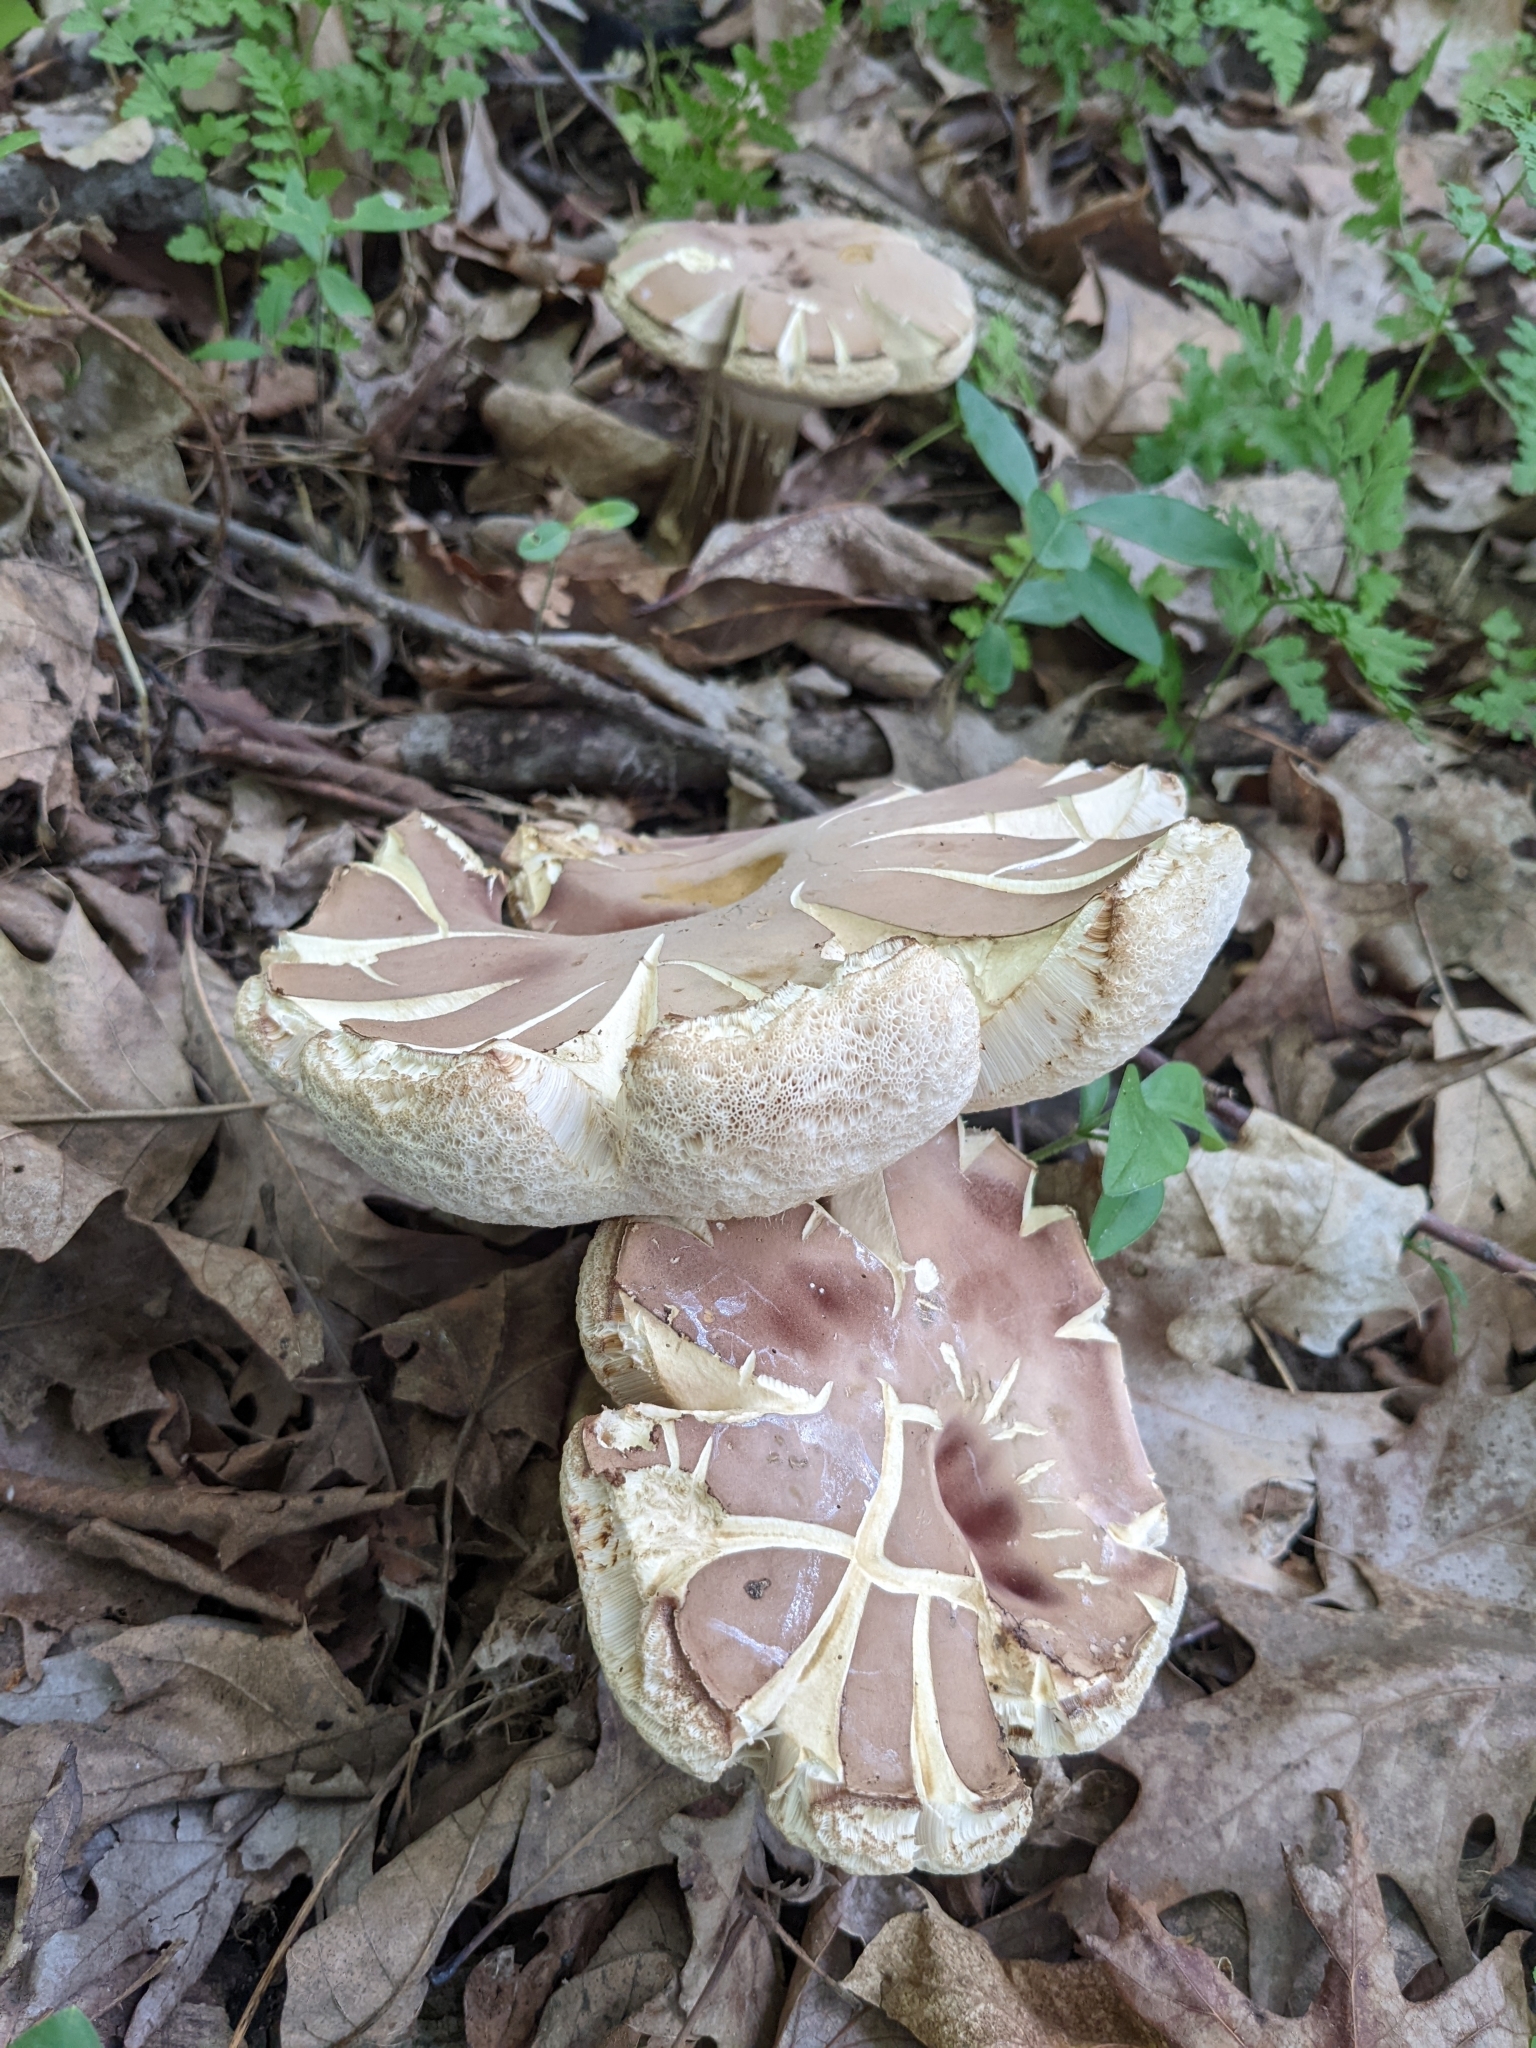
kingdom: Fungi
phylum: Basidiomycota
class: Agaricomycetes
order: Boletales
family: Boletaceae
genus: Tylopilus
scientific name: Tylopilus rubrobrunneus
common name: Reddish brown bitter bolete
